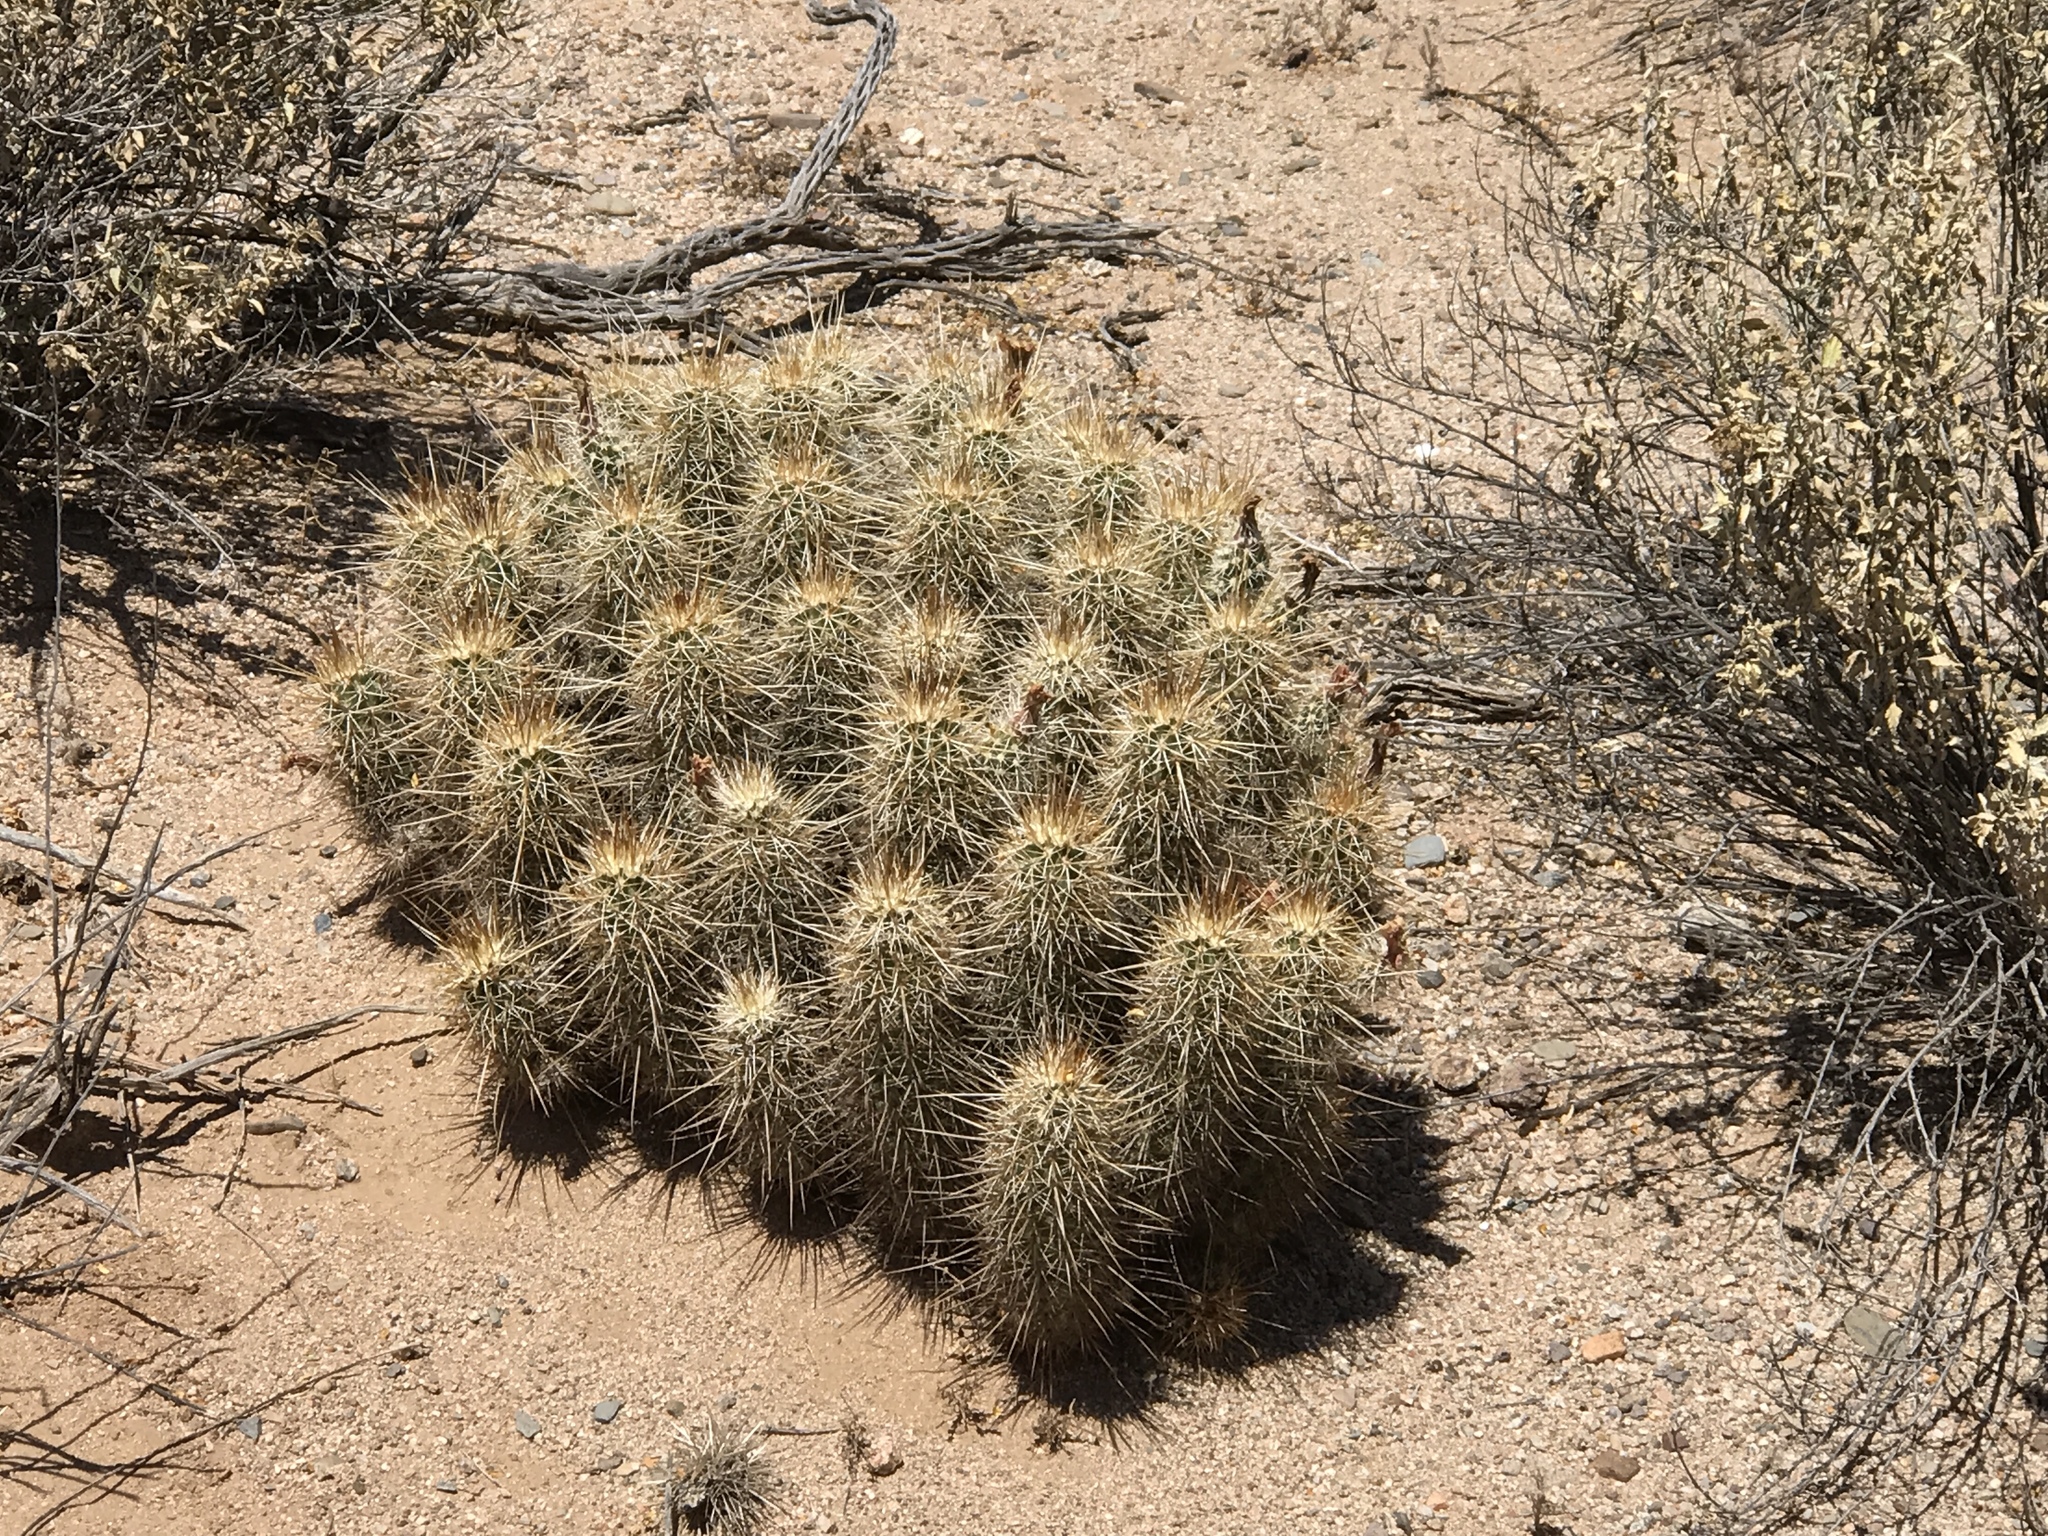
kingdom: Plantae
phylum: Tracheophyta
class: Magnoliopsida
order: Caryophyllales
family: Cactaceae
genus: Echinocereus
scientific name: Echinocereus engelmannii
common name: Engelmann's hedgehog cactus
